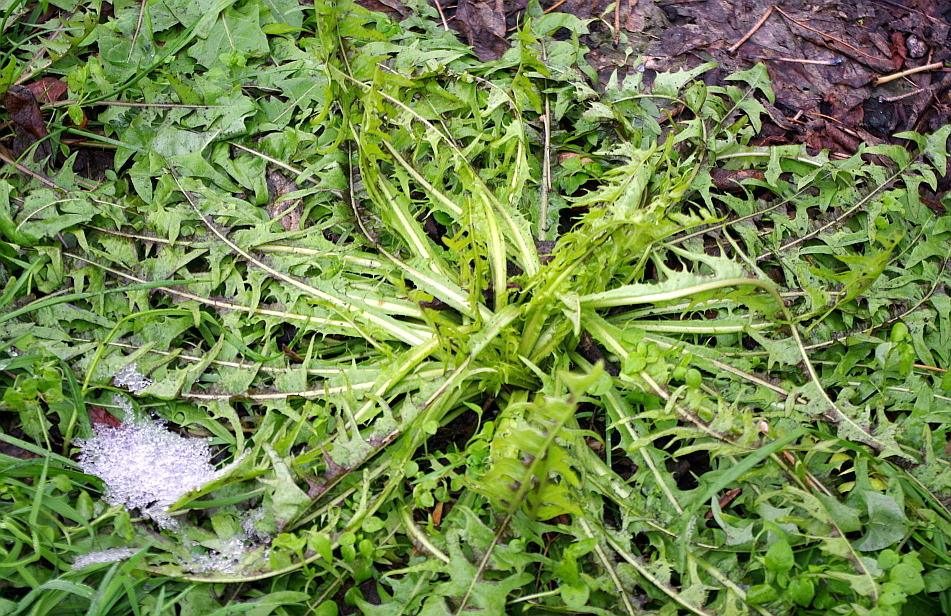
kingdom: Plantae
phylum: Tracheophyta
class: Magnoliopsida
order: Asterales
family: Asteraceae
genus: Taraxacum
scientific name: Taraxacum officinale
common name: Common dandelion
